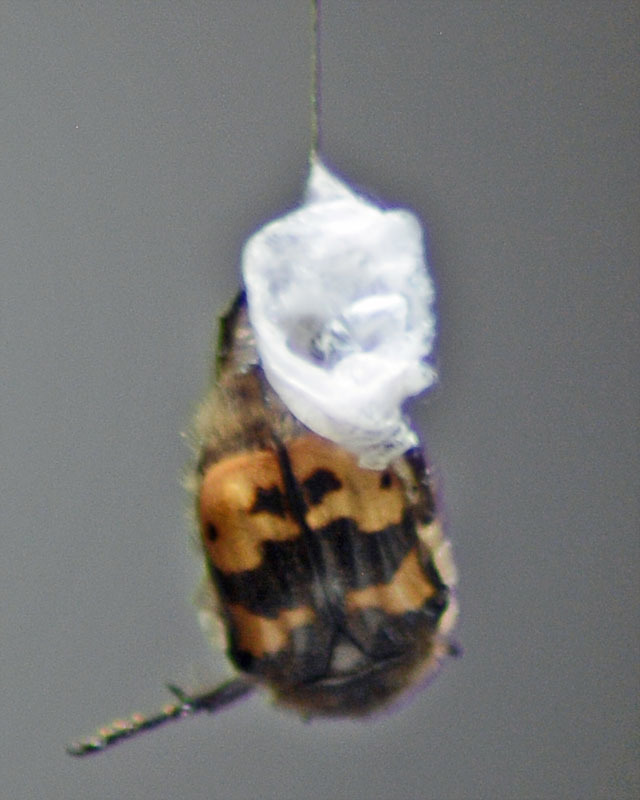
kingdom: Animalia
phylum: Arthropoda
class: Insecta
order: Coleoptera
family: Scarabaeidae
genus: Euphoria
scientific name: Euphoria basalis
